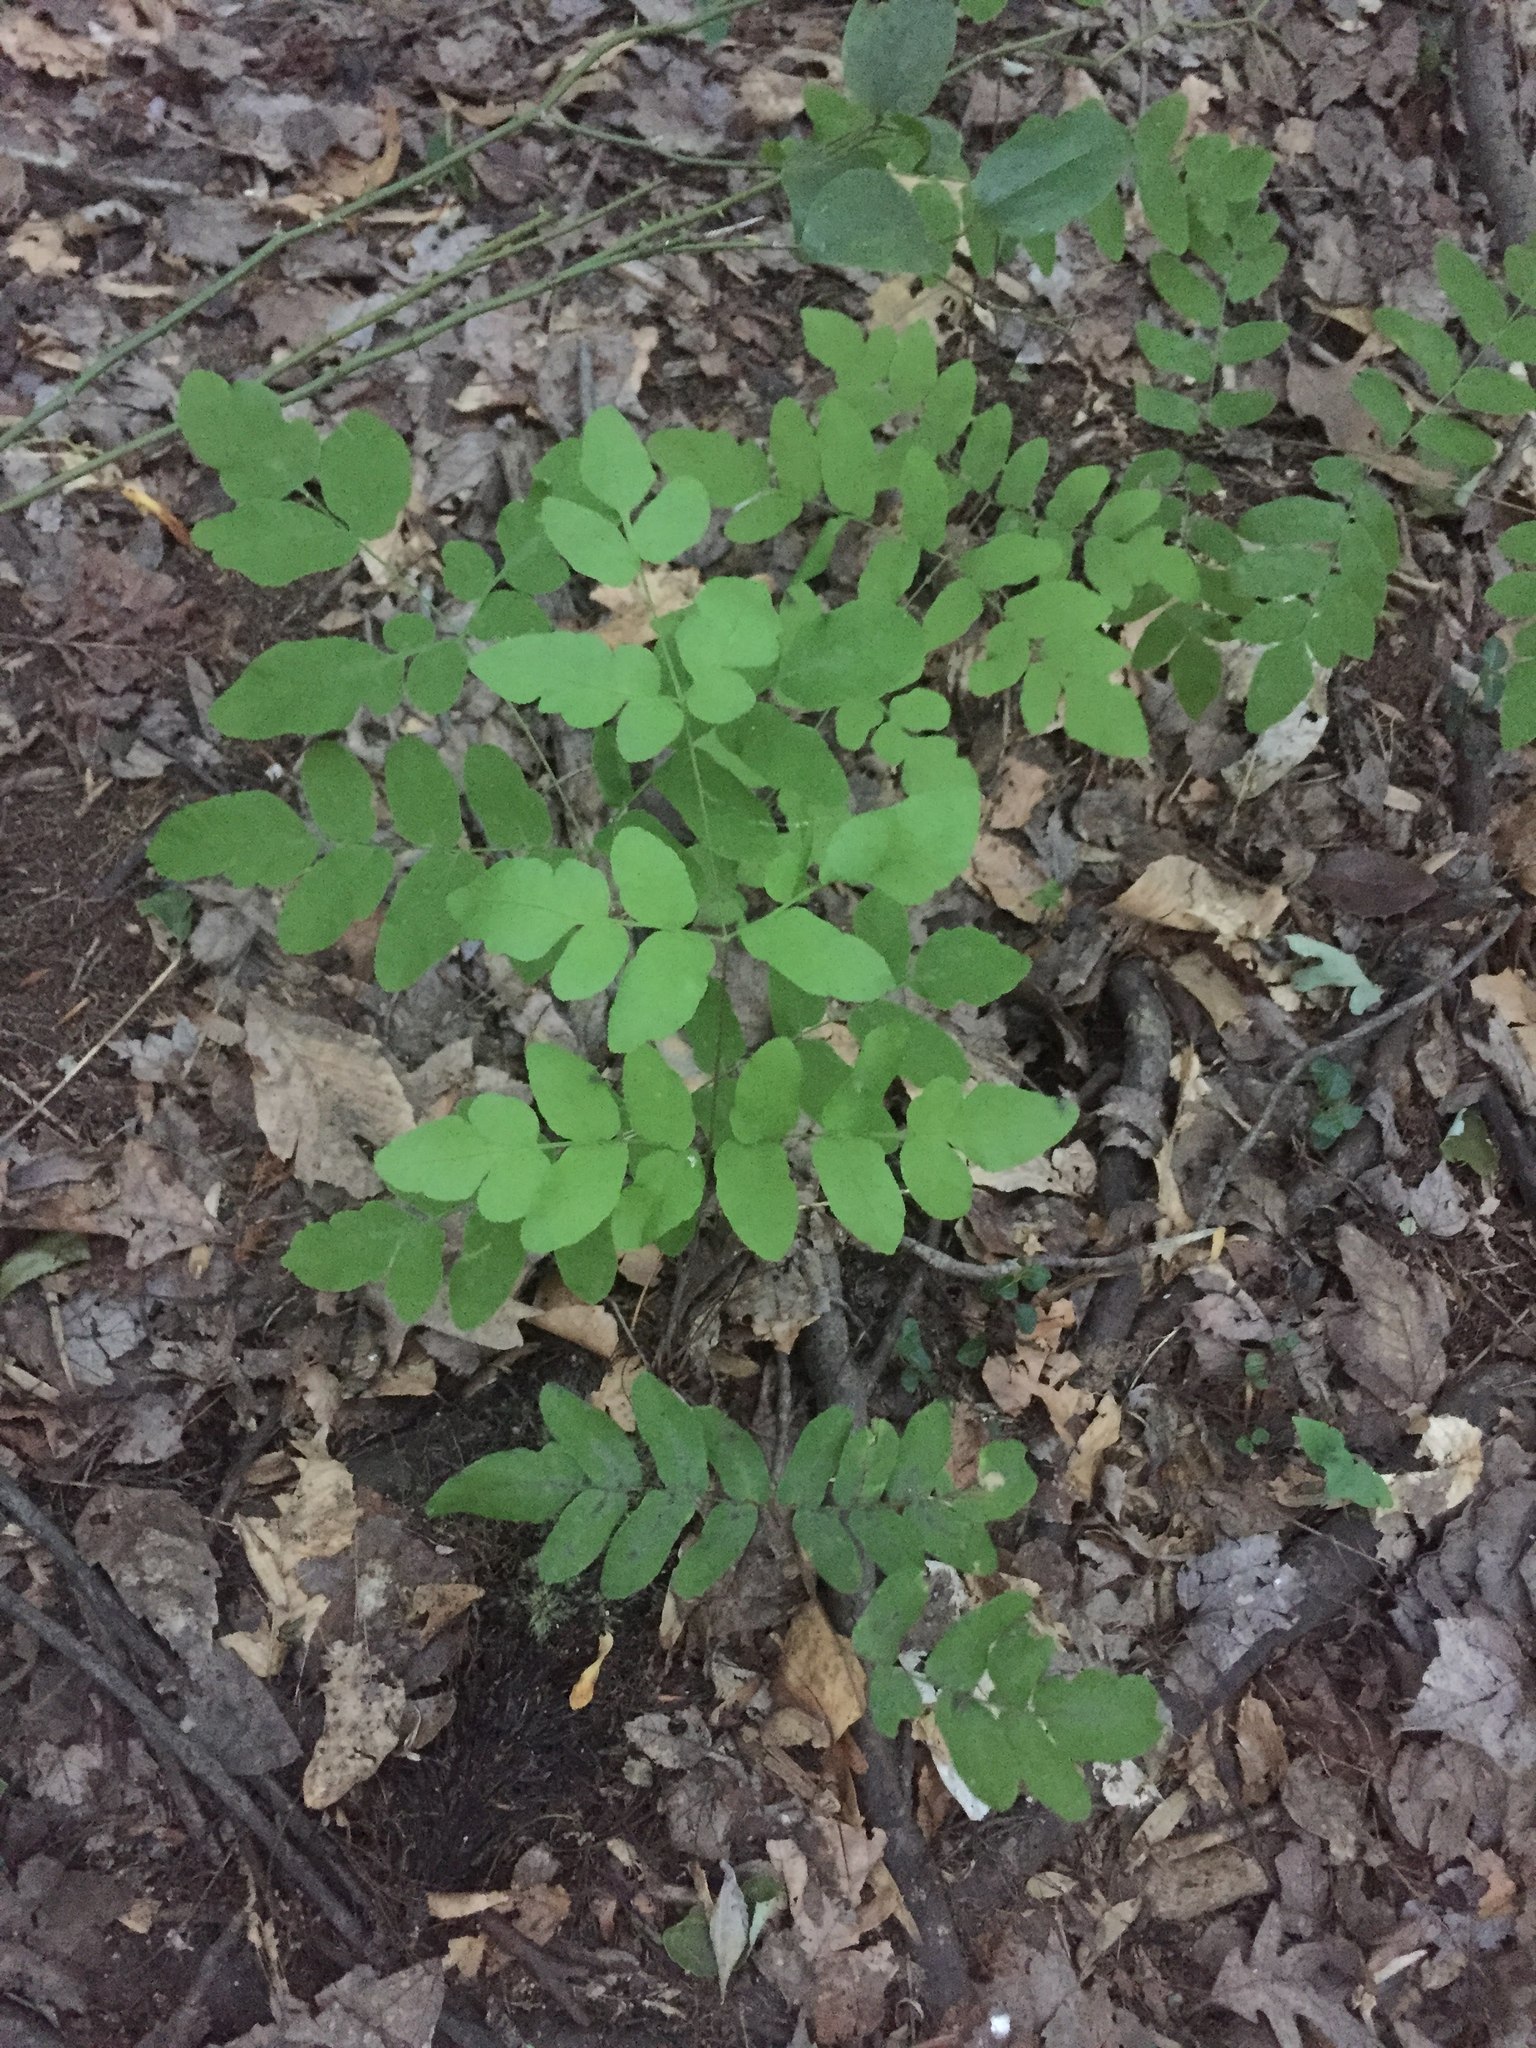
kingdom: Plantae
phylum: Tracheophyta
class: Polypodiopsida
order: Osmundales
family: Osmundaceae
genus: Osmunda
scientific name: Osmunda spectabilis
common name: American royal fern
